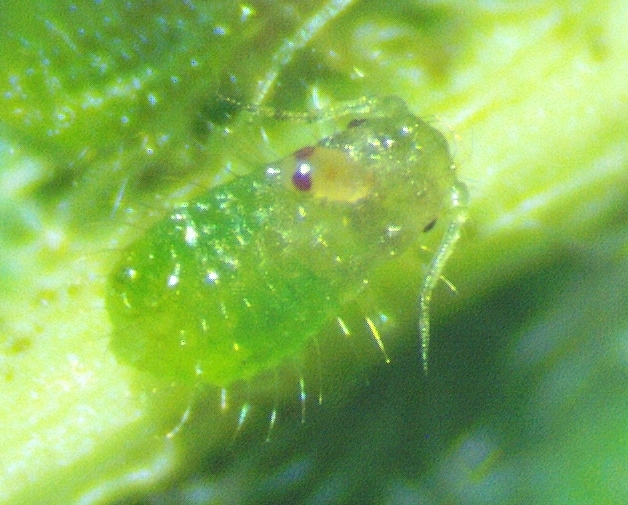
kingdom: Animalia
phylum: Arthropoda
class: Insecta
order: Hemiptera
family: Aphididae
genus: Periphyllus
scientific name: Periphyllus negundinis
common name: Boxelder aphid
